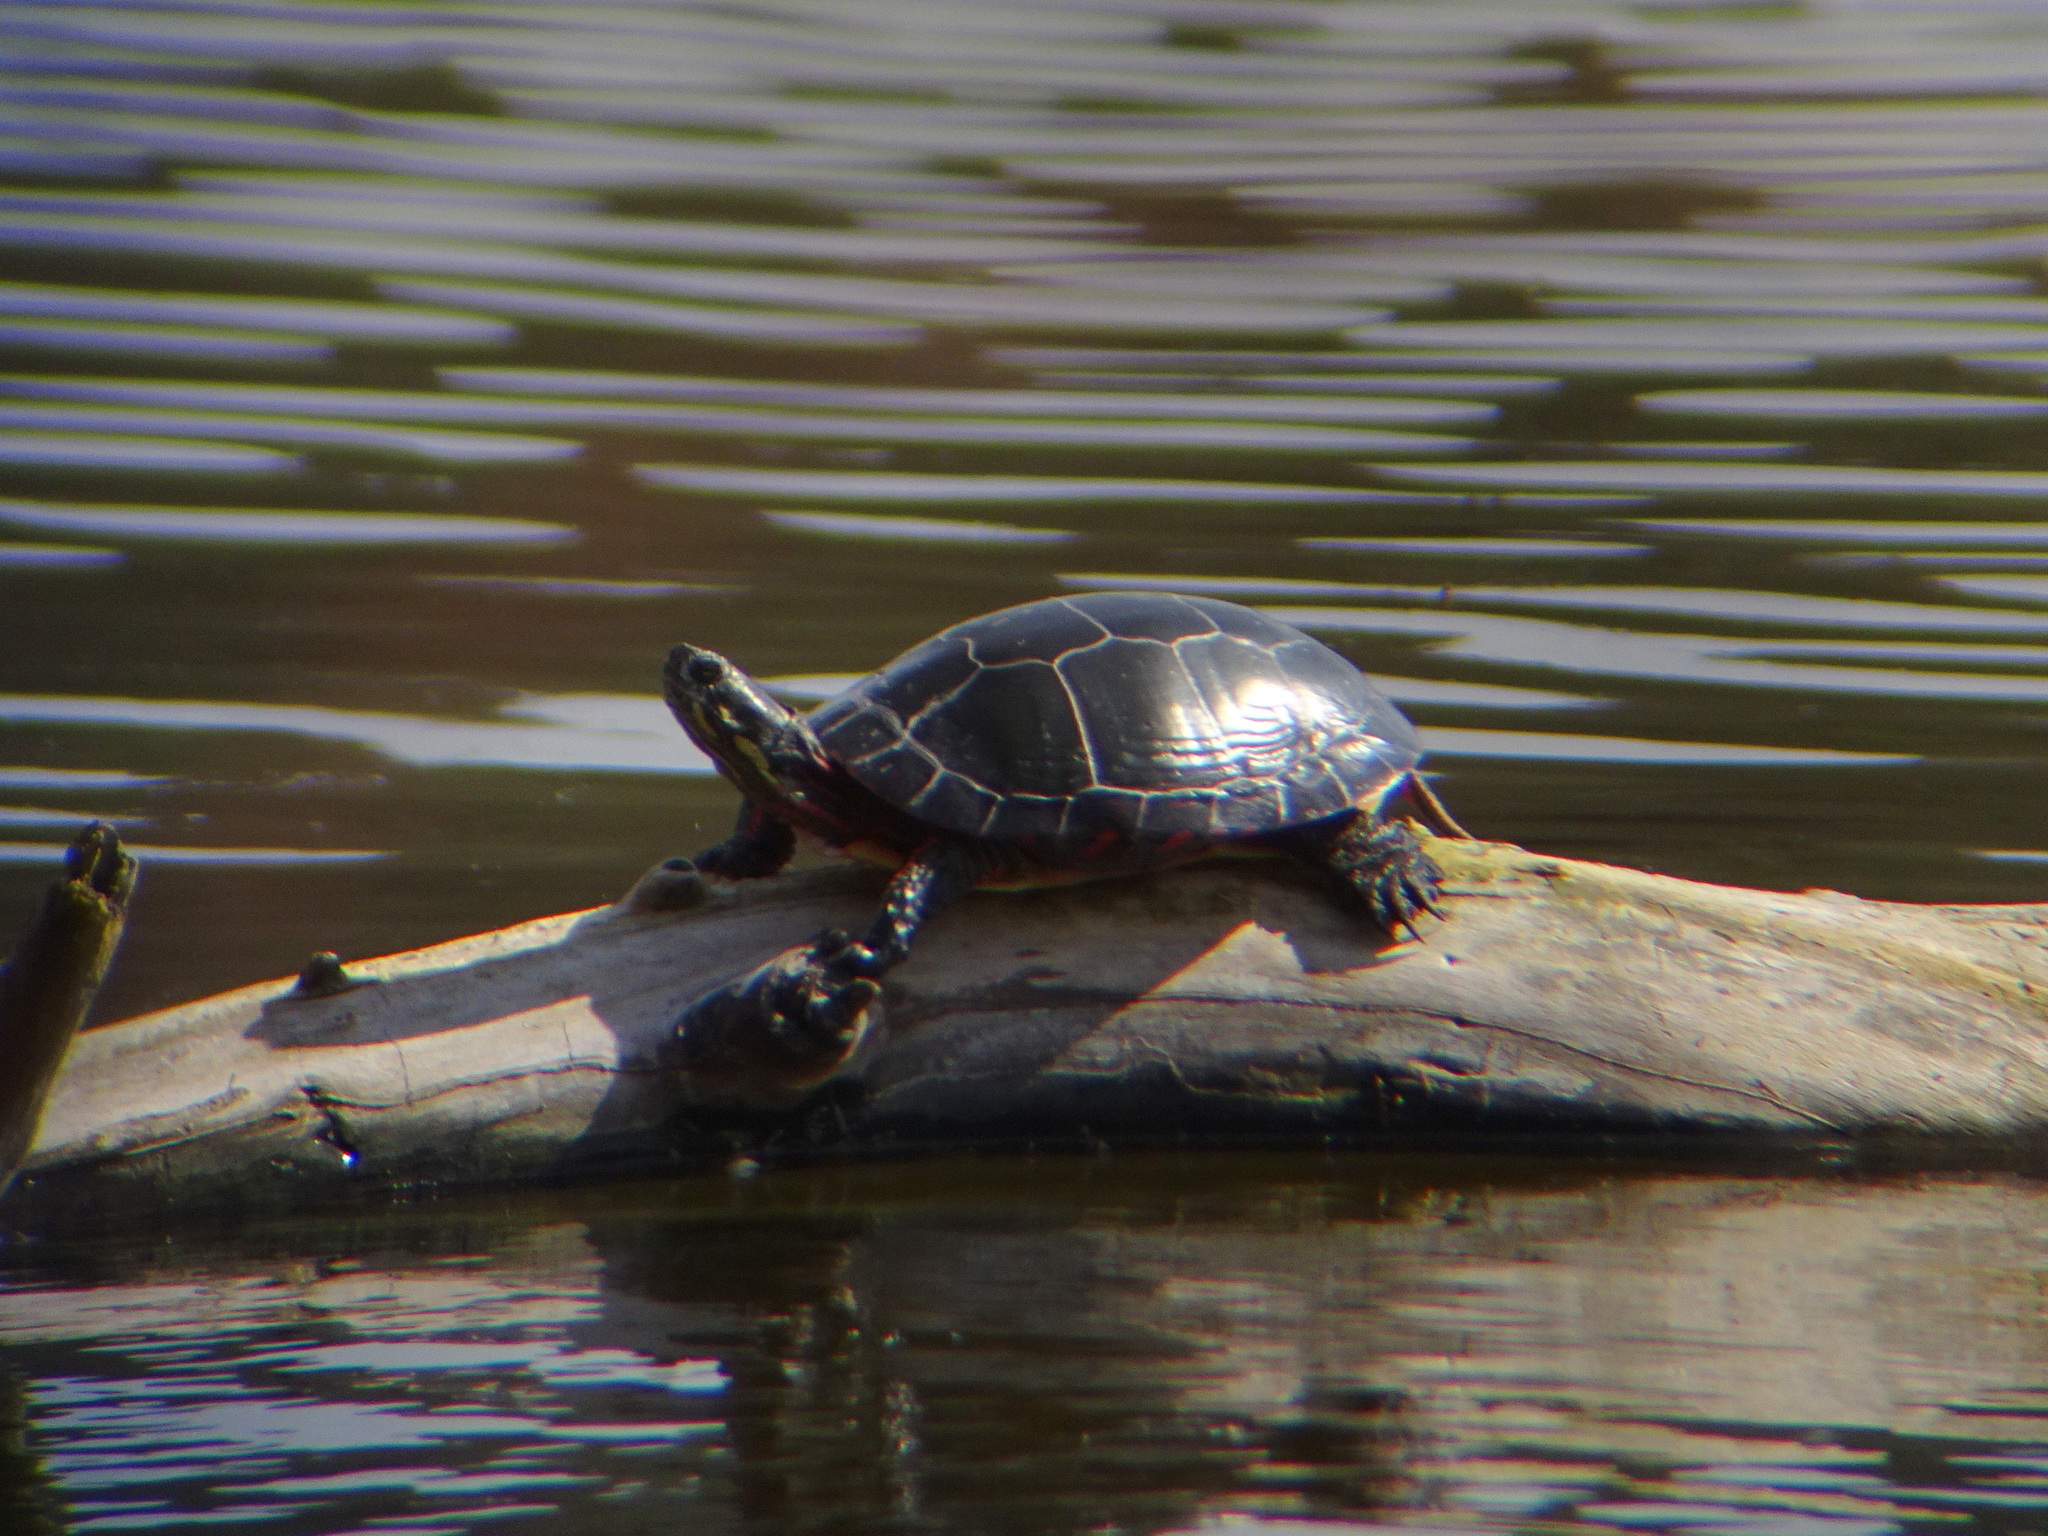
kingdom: Animalia
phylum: Chordata
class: Testudines
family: Emydidae
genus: Chrysemys
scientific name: Chrysemys picta
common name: Painted turtle
